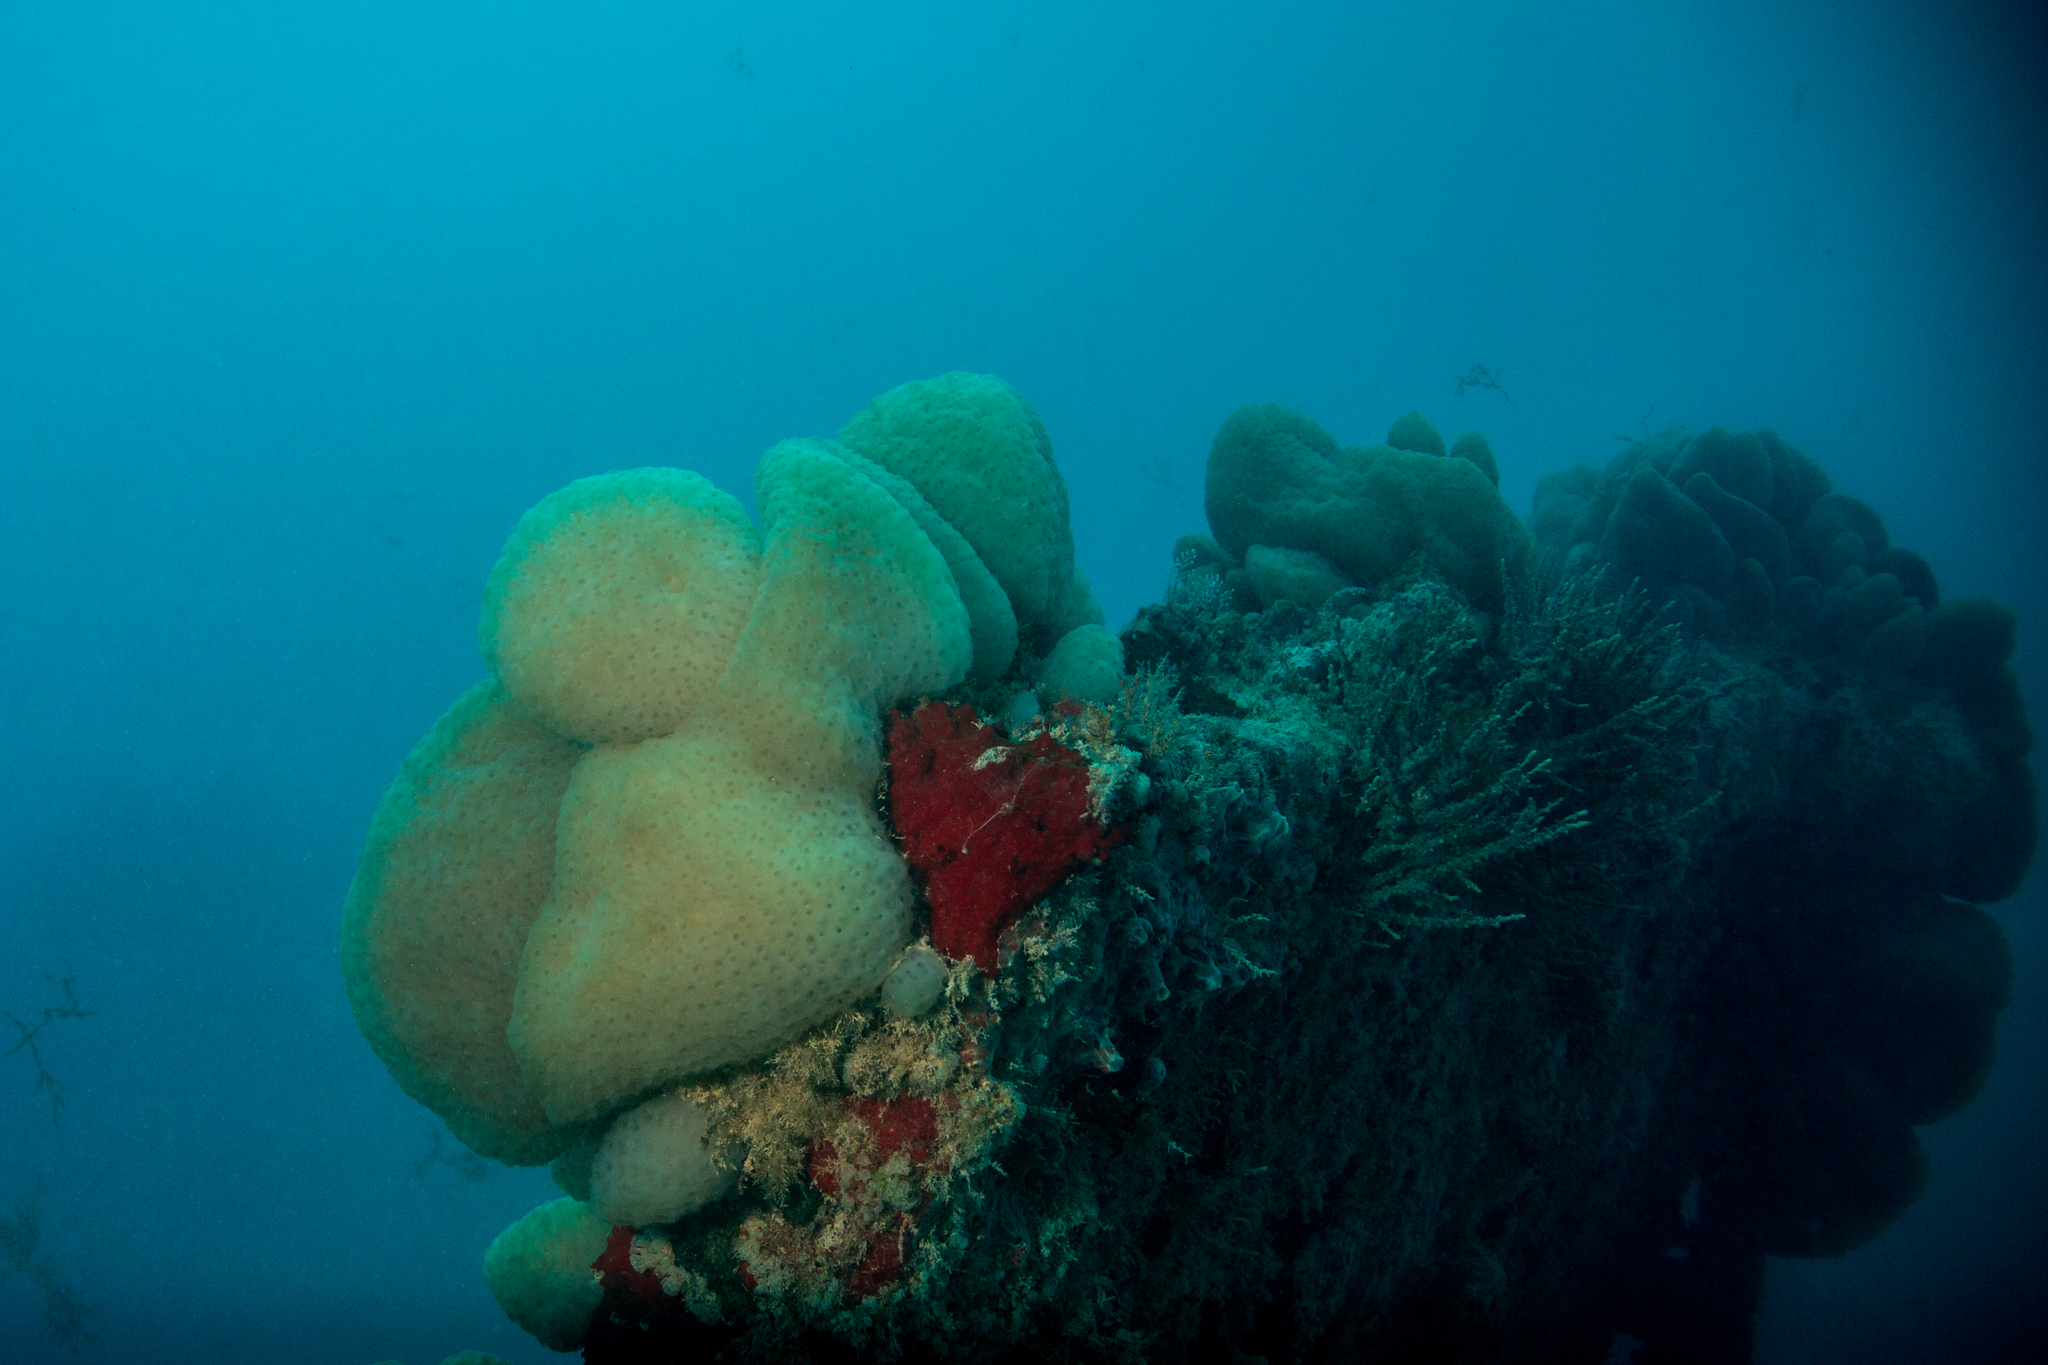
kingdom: Animalia
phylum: Chordata
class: Ascidiacea
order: Aplousobranchia
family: Stomozoidae
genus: Stomozoa
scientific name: Stomozoa gigantea
